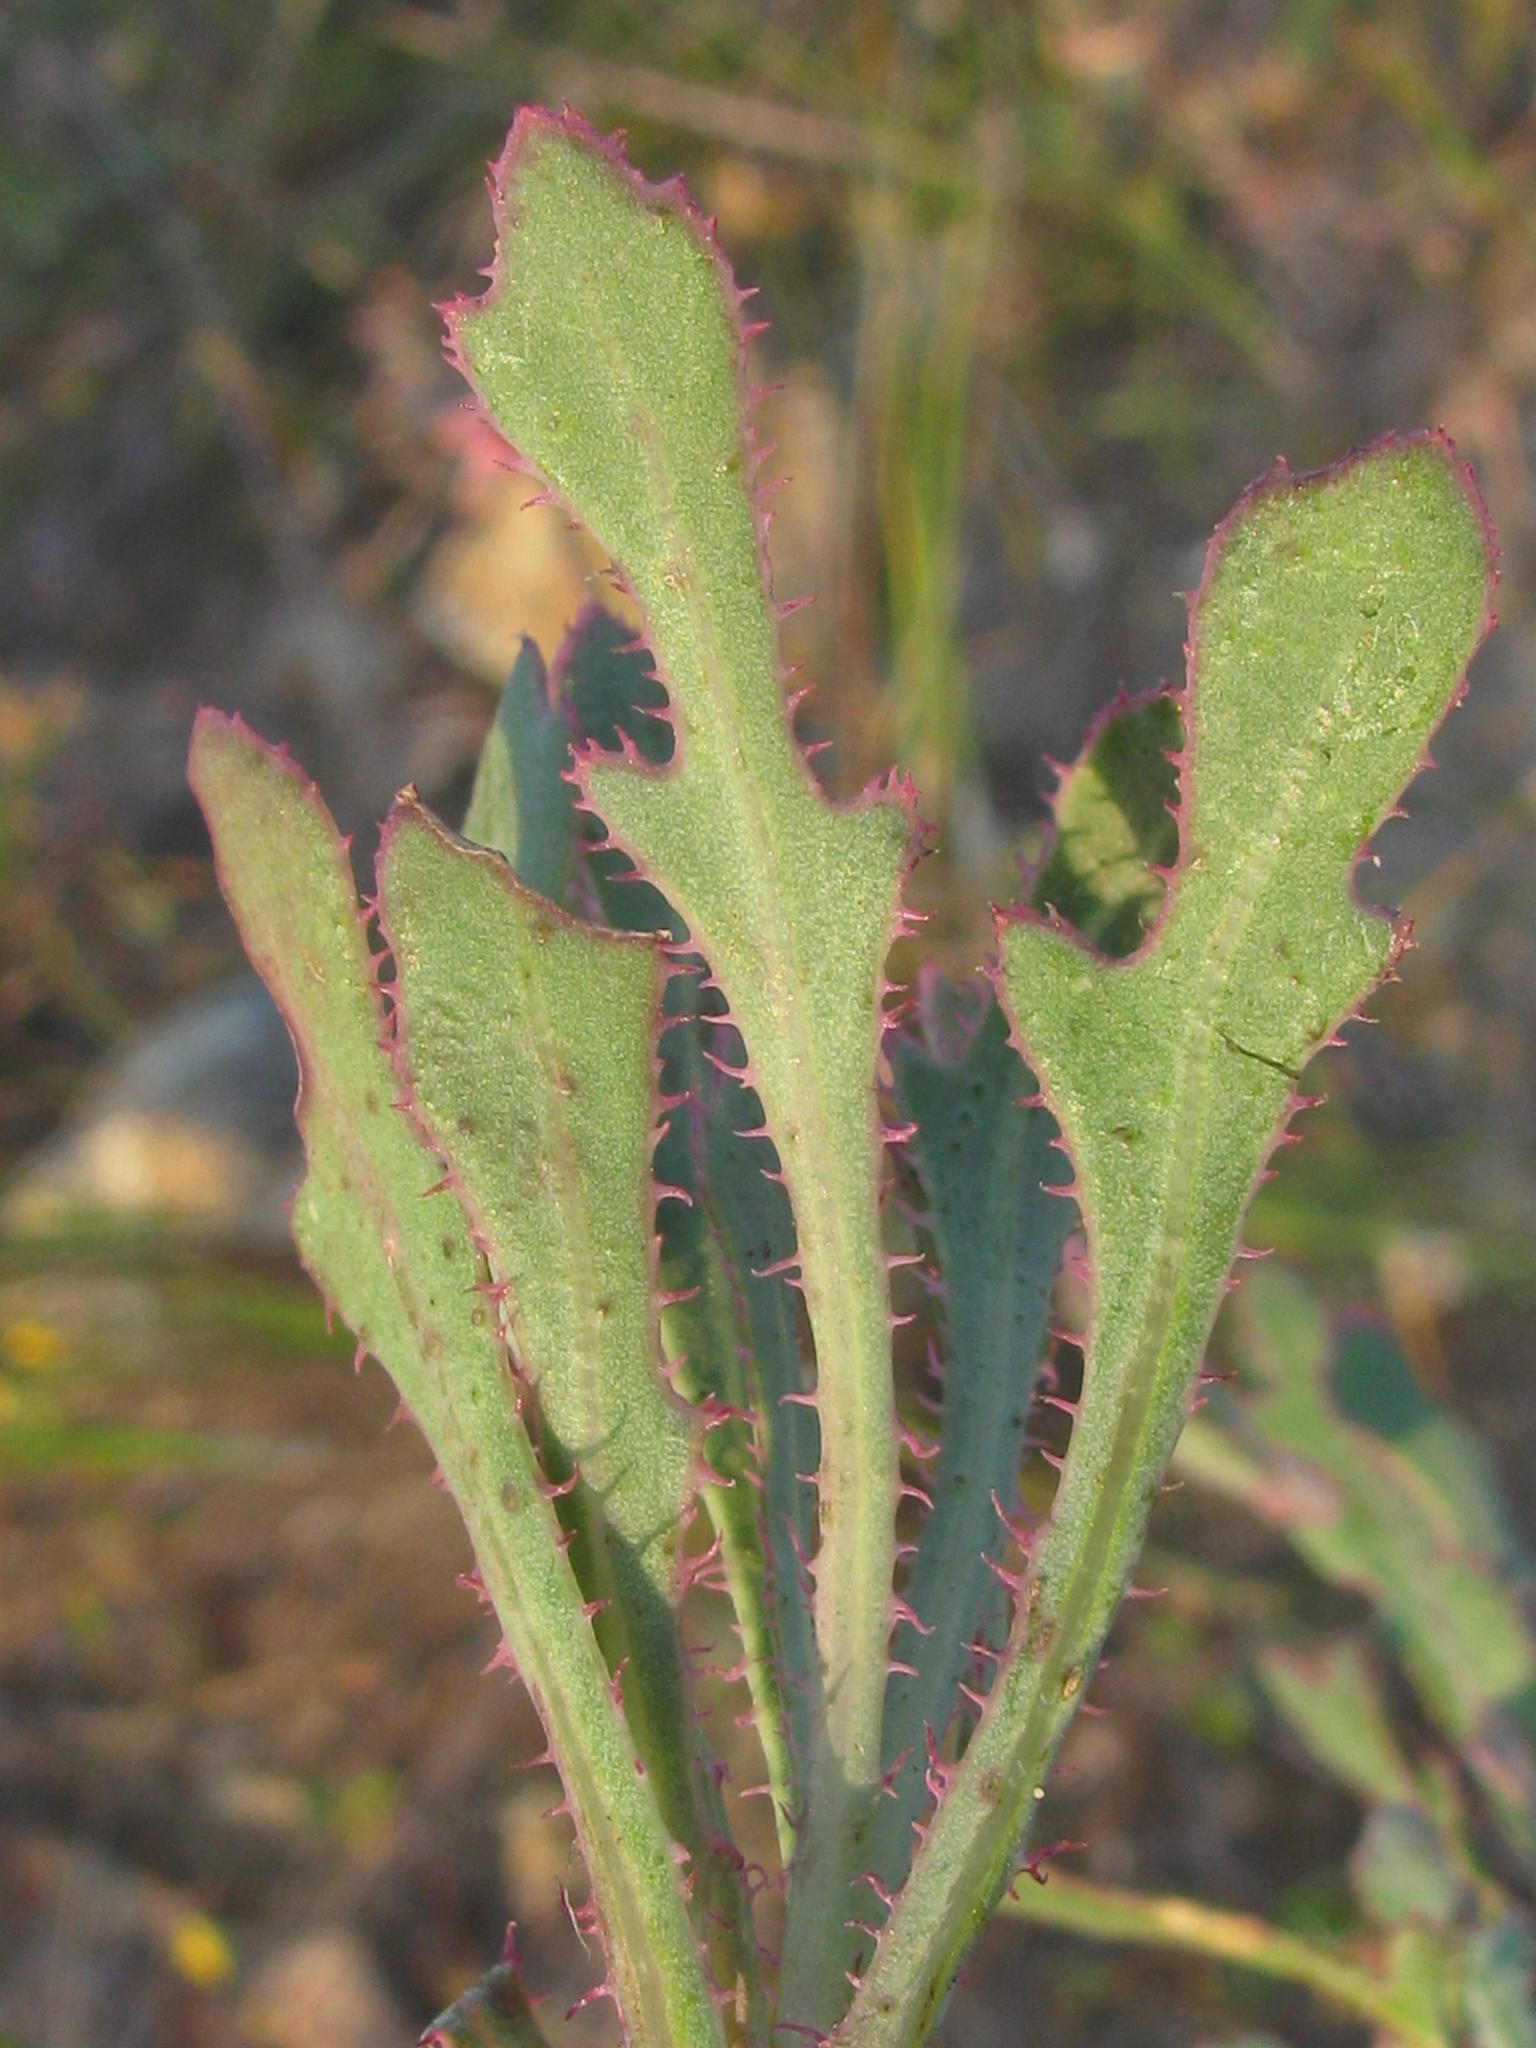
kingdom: Plantae
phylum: Tracheophyta
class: Magnoliopsida
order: Asterales
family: Asteraceae
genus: Othonna
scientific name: Othonna ciliata
